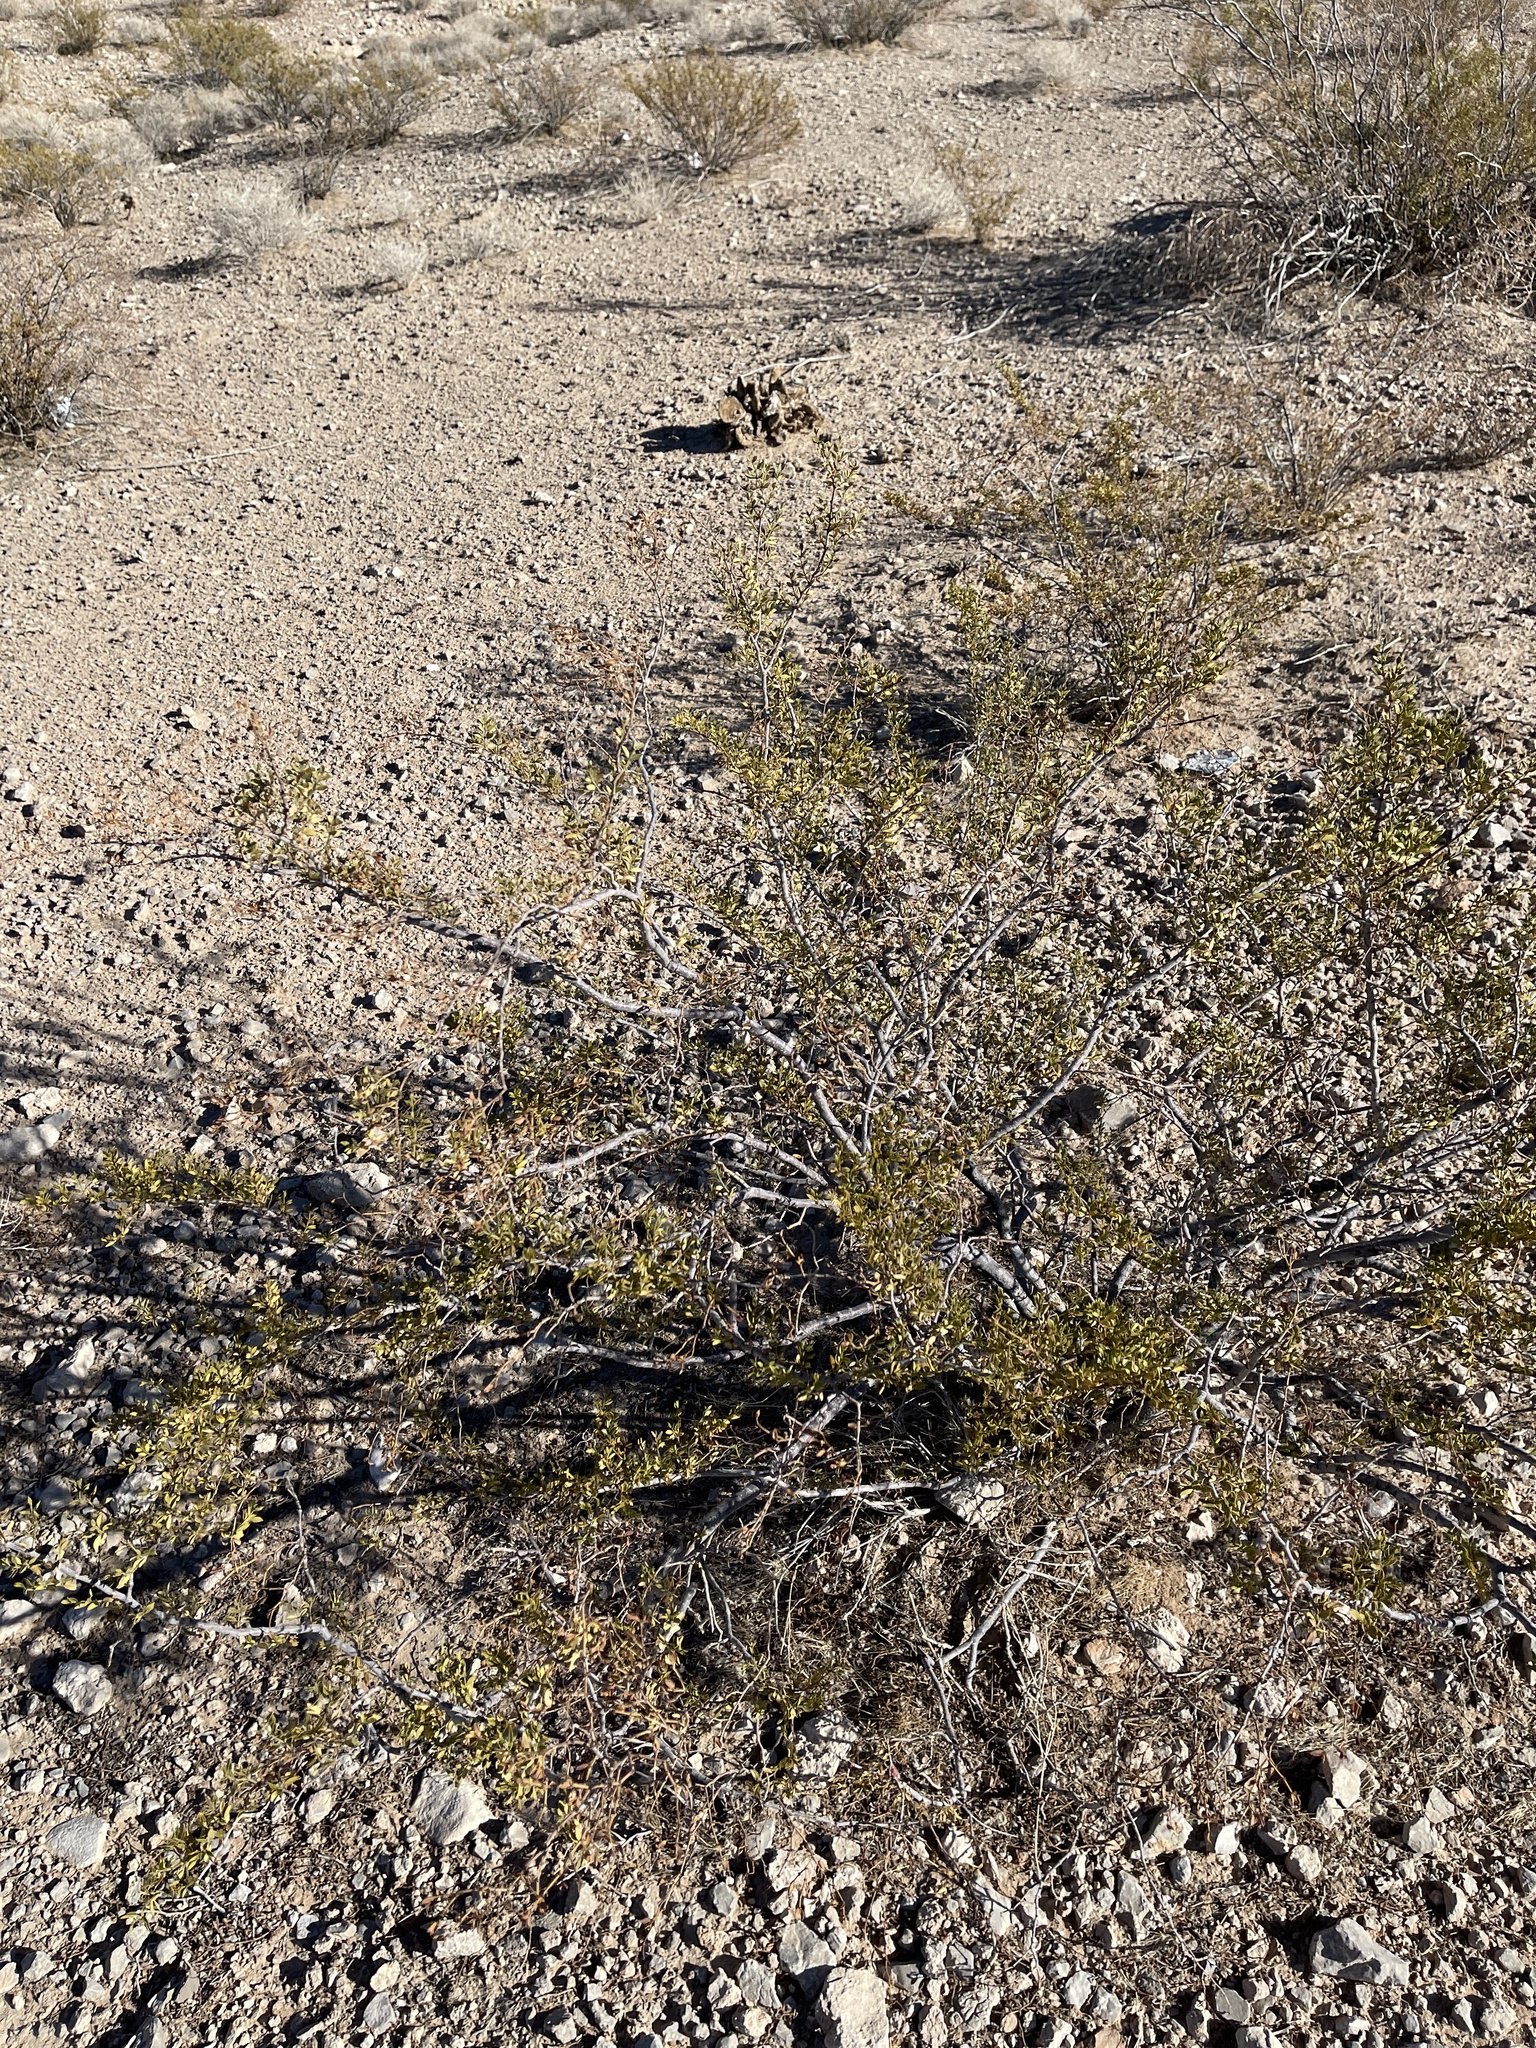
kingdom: Plantae
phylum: Tracheophyta
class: Magnoliopsida
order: Zygophyllales
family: Zygophyllaceae
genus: Larrea
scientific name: Larrea tridentata
